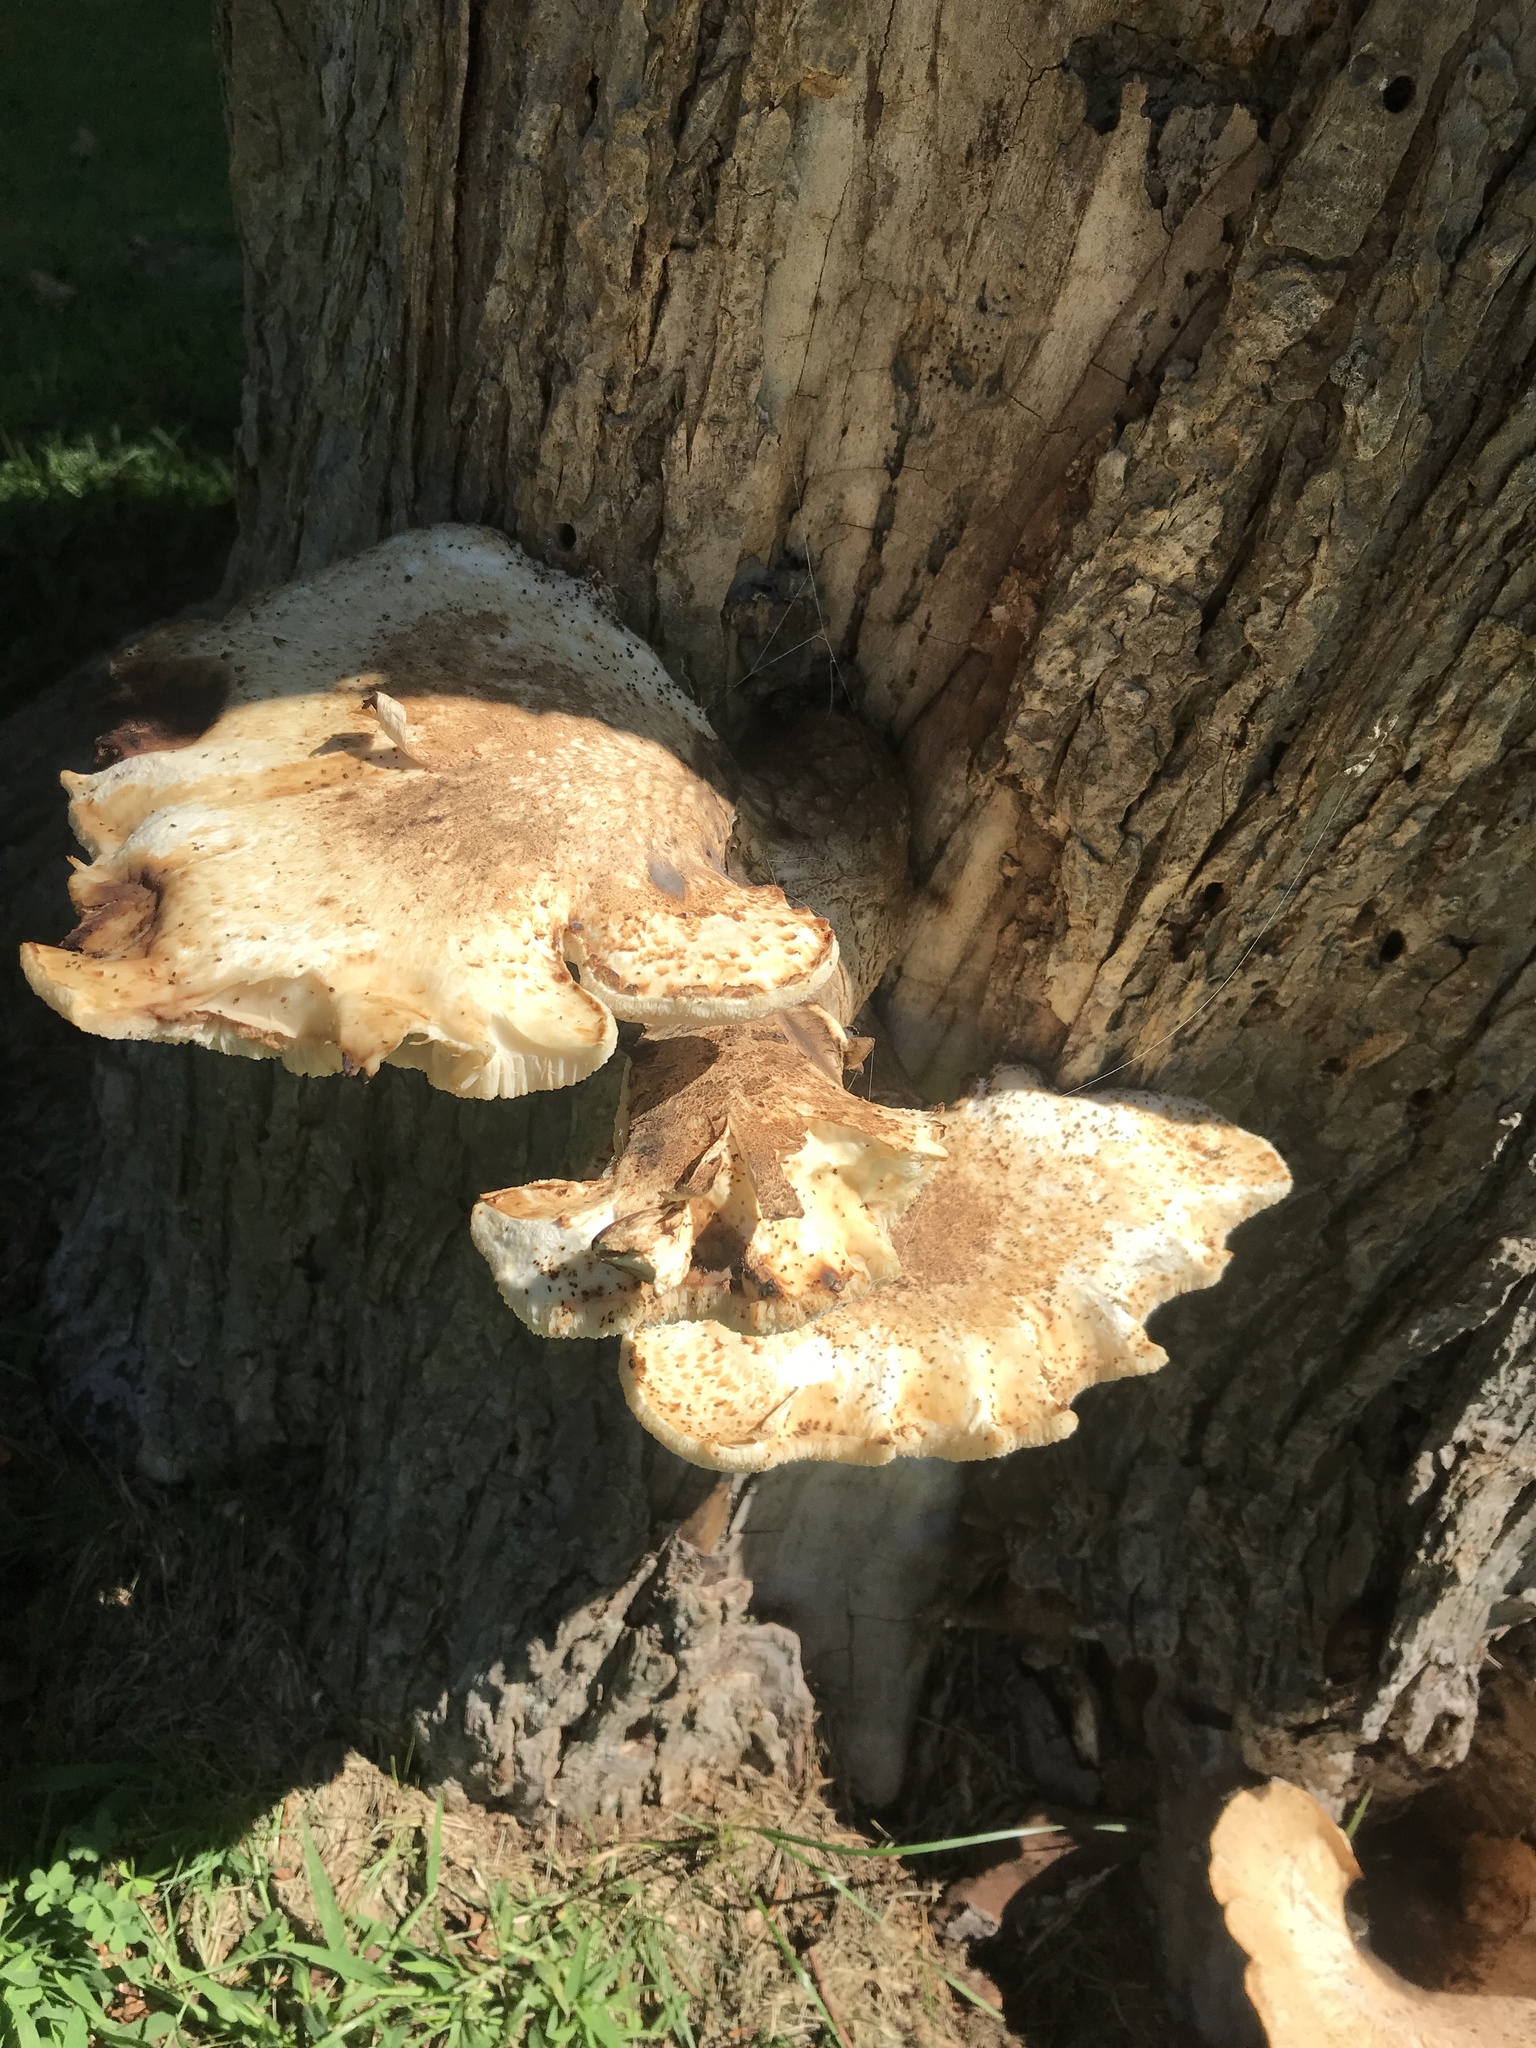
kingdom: Fungi
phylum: Basidiomycota
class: Agaricomycetes
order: Polyporales
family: Polyporaceae
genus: Cerioporus
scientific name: Cerioporus squamosus
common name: Dryad's saddle
